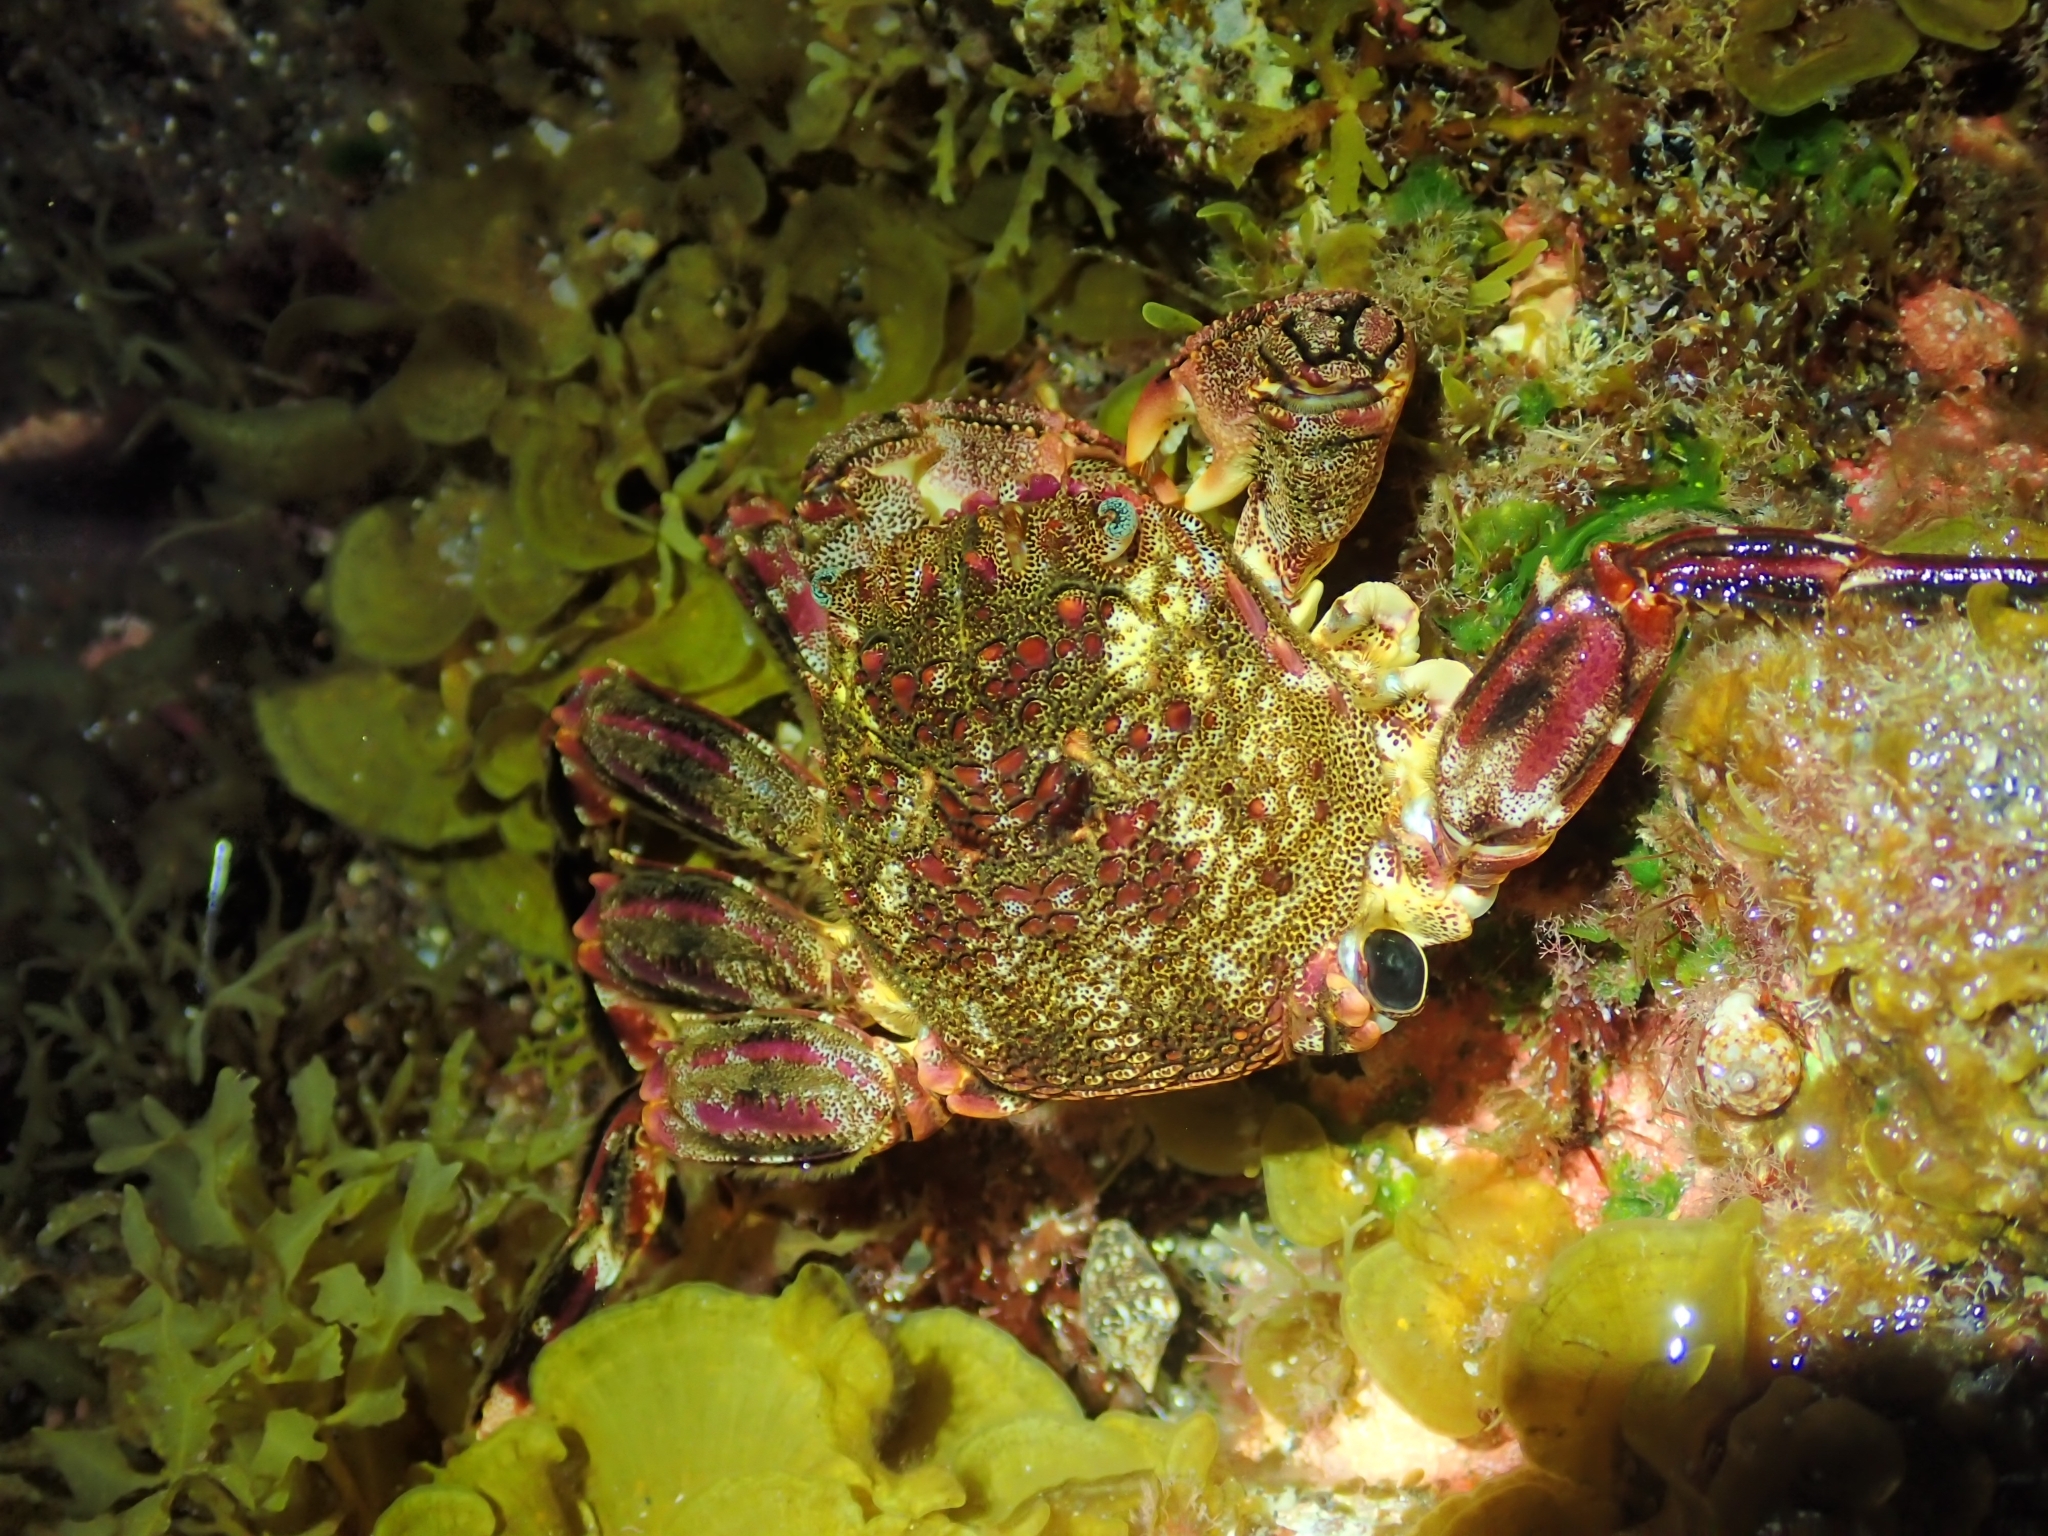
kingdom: Animalia
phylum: Arthropoda
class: Malacostraca
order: Decapoda
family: Plagusiidae
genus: Plagusia
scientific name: Plagusia depressa
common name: Flattened crab
